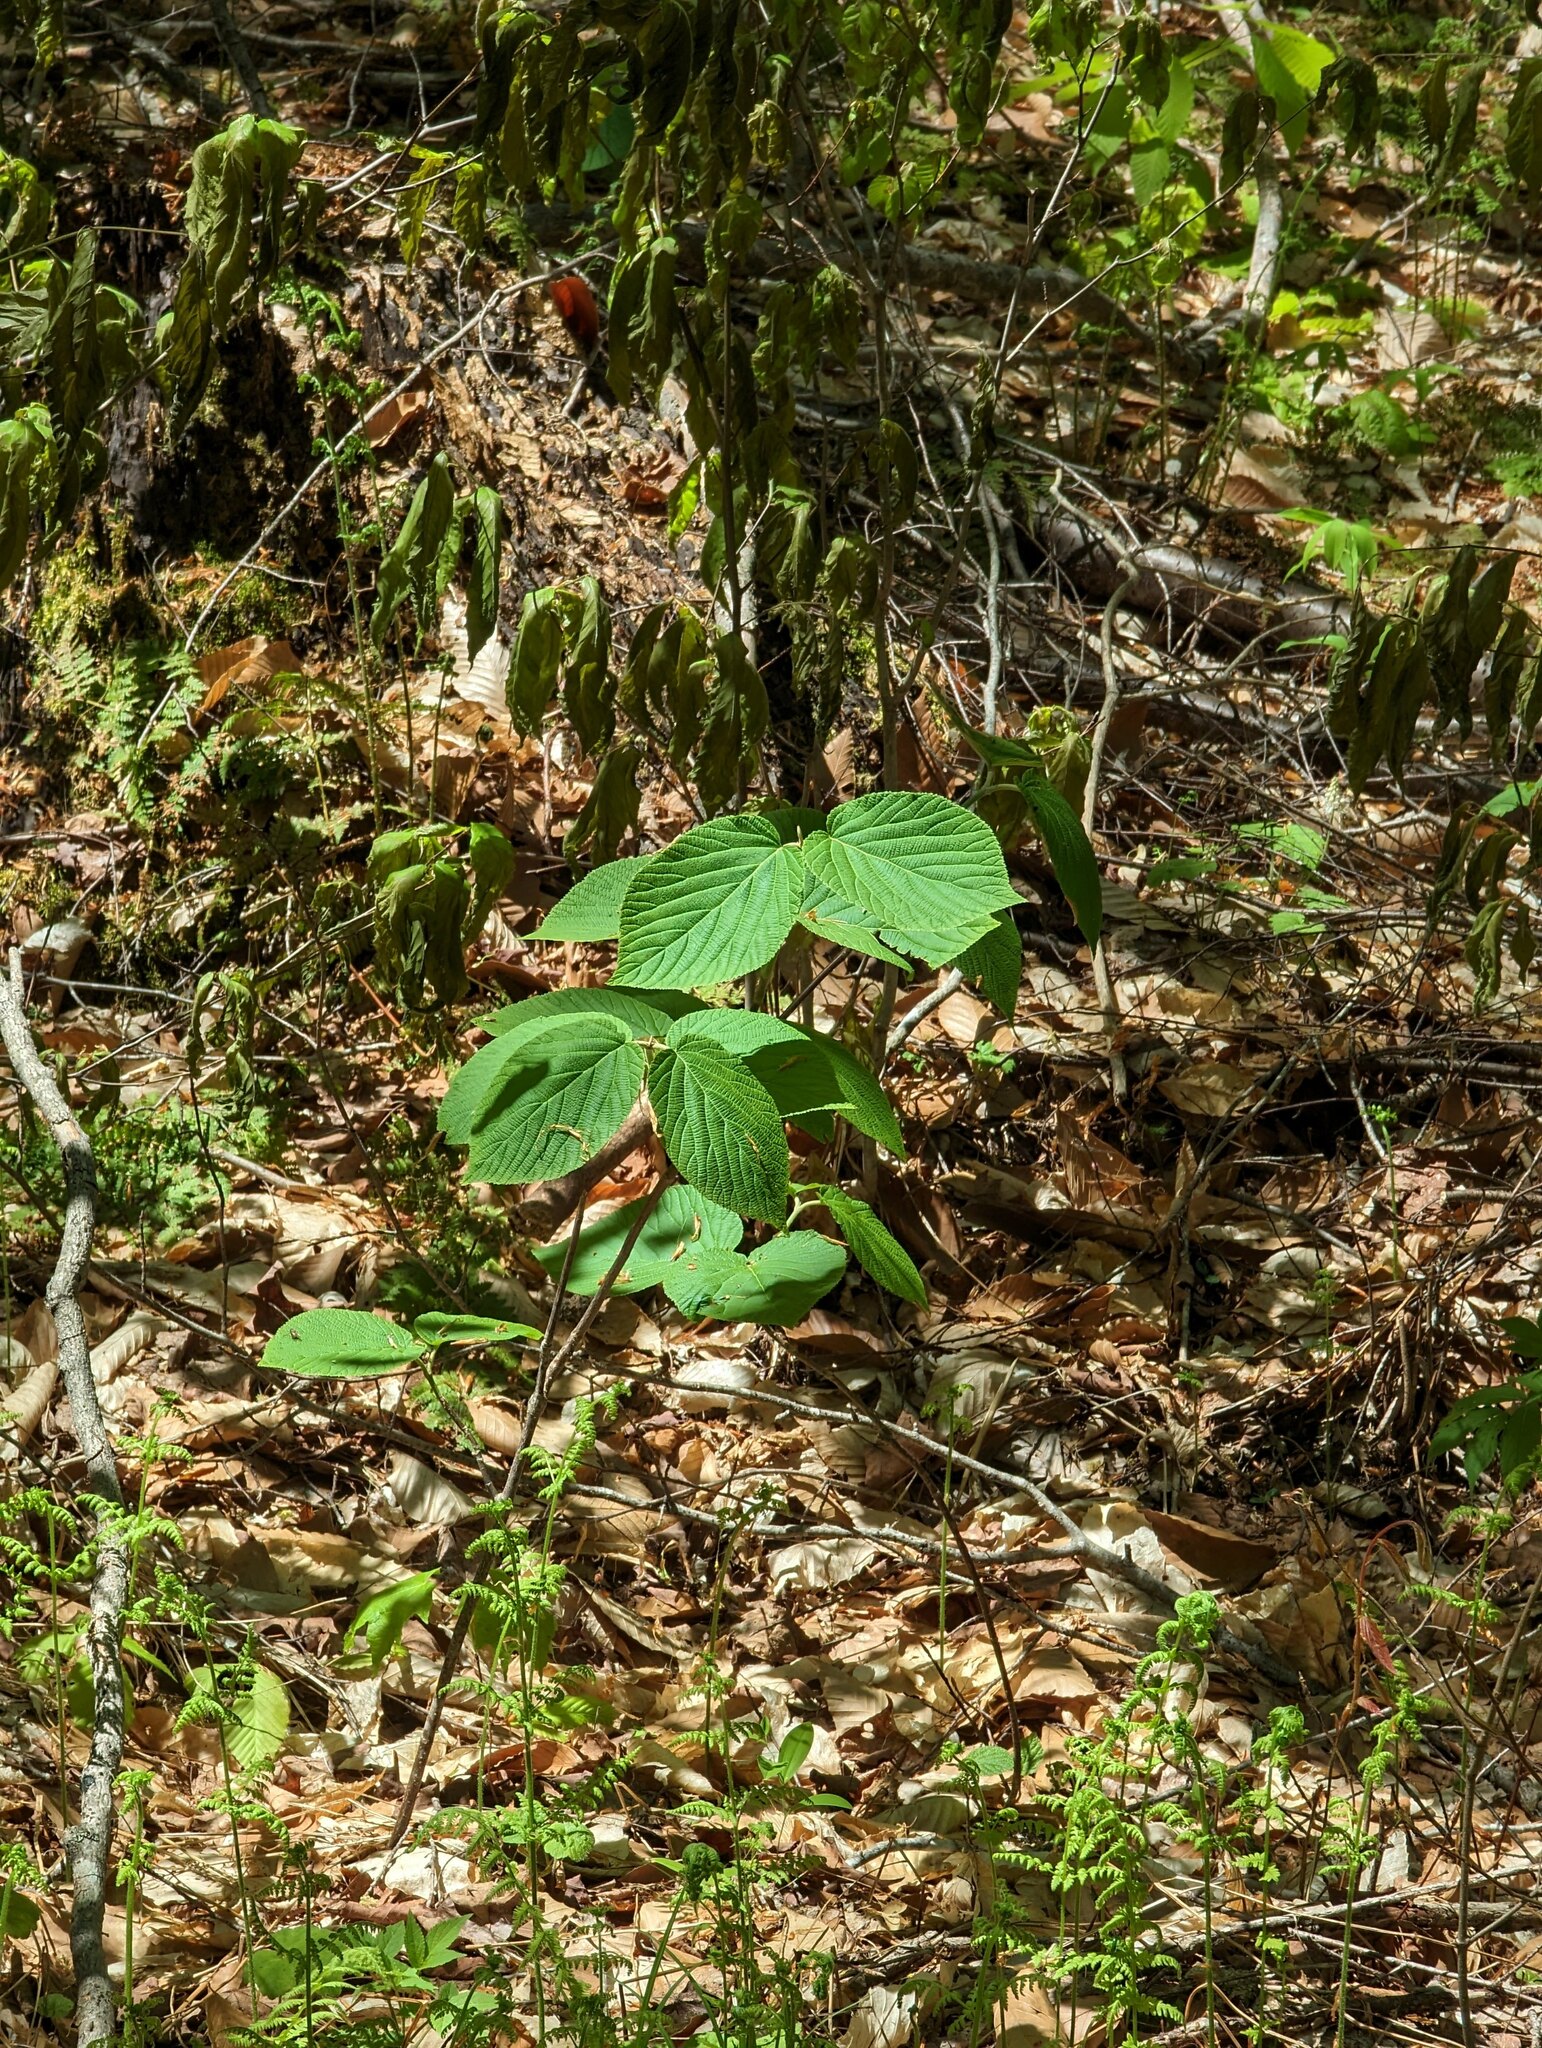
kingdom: Plantae
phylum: Tracheophyta
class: Magnoliopsida
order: Dipsacales
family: Viburnaceae
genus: Viburnum
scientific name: Viburnum lantanoides
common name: Hobblebush
